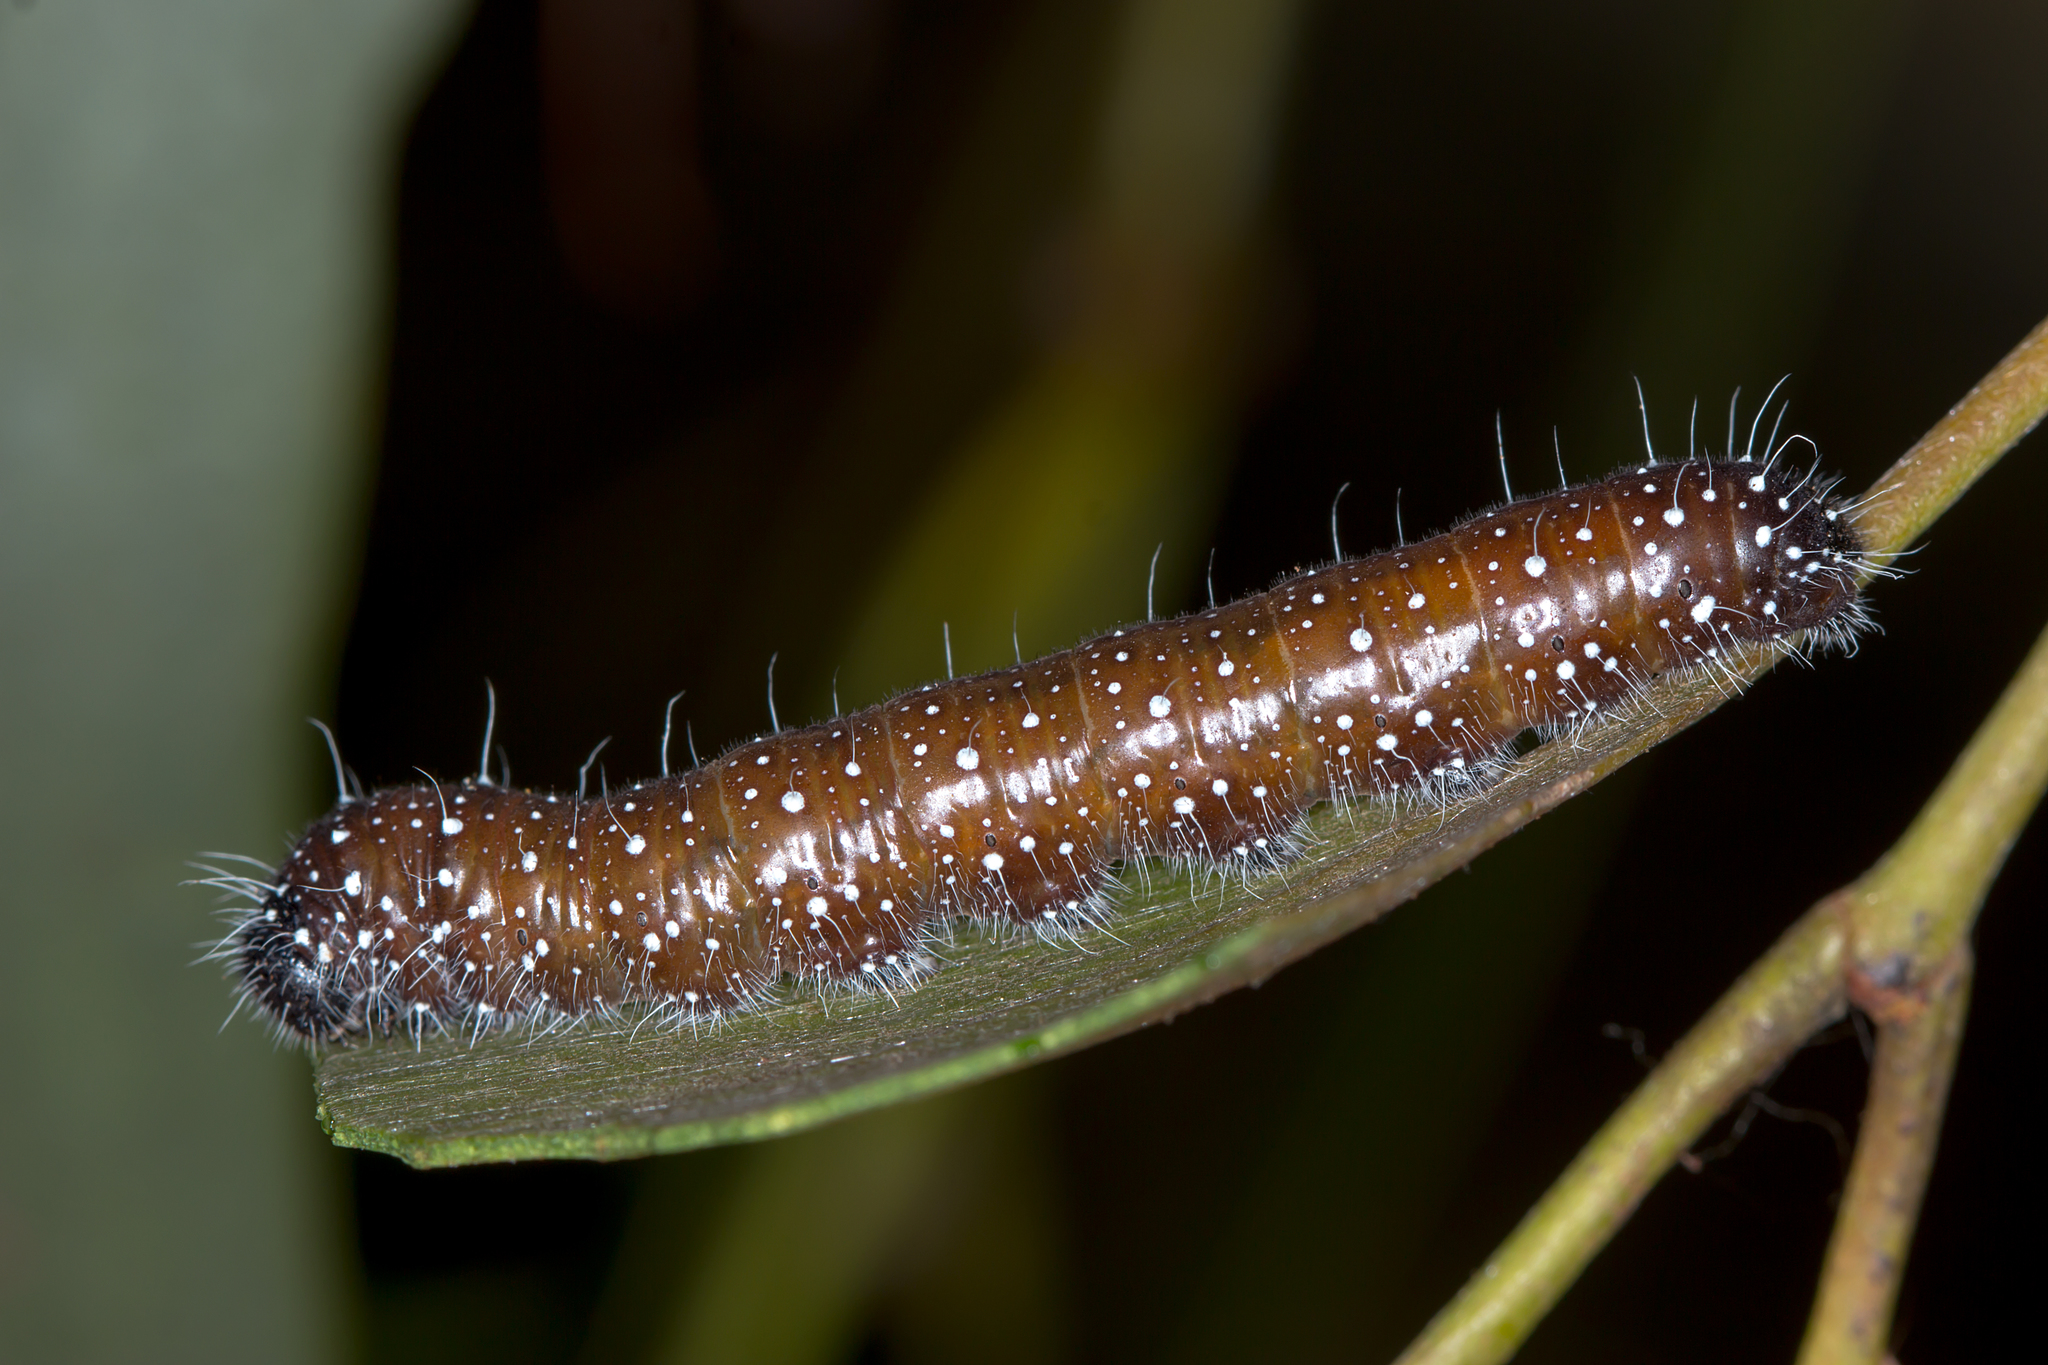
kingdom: Animalia
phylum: Arthropoda
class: Insecta
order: Lepidoptera
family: Pieridae
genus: Delias
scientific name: Delias aganippe
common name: Red-spotted jezebel
